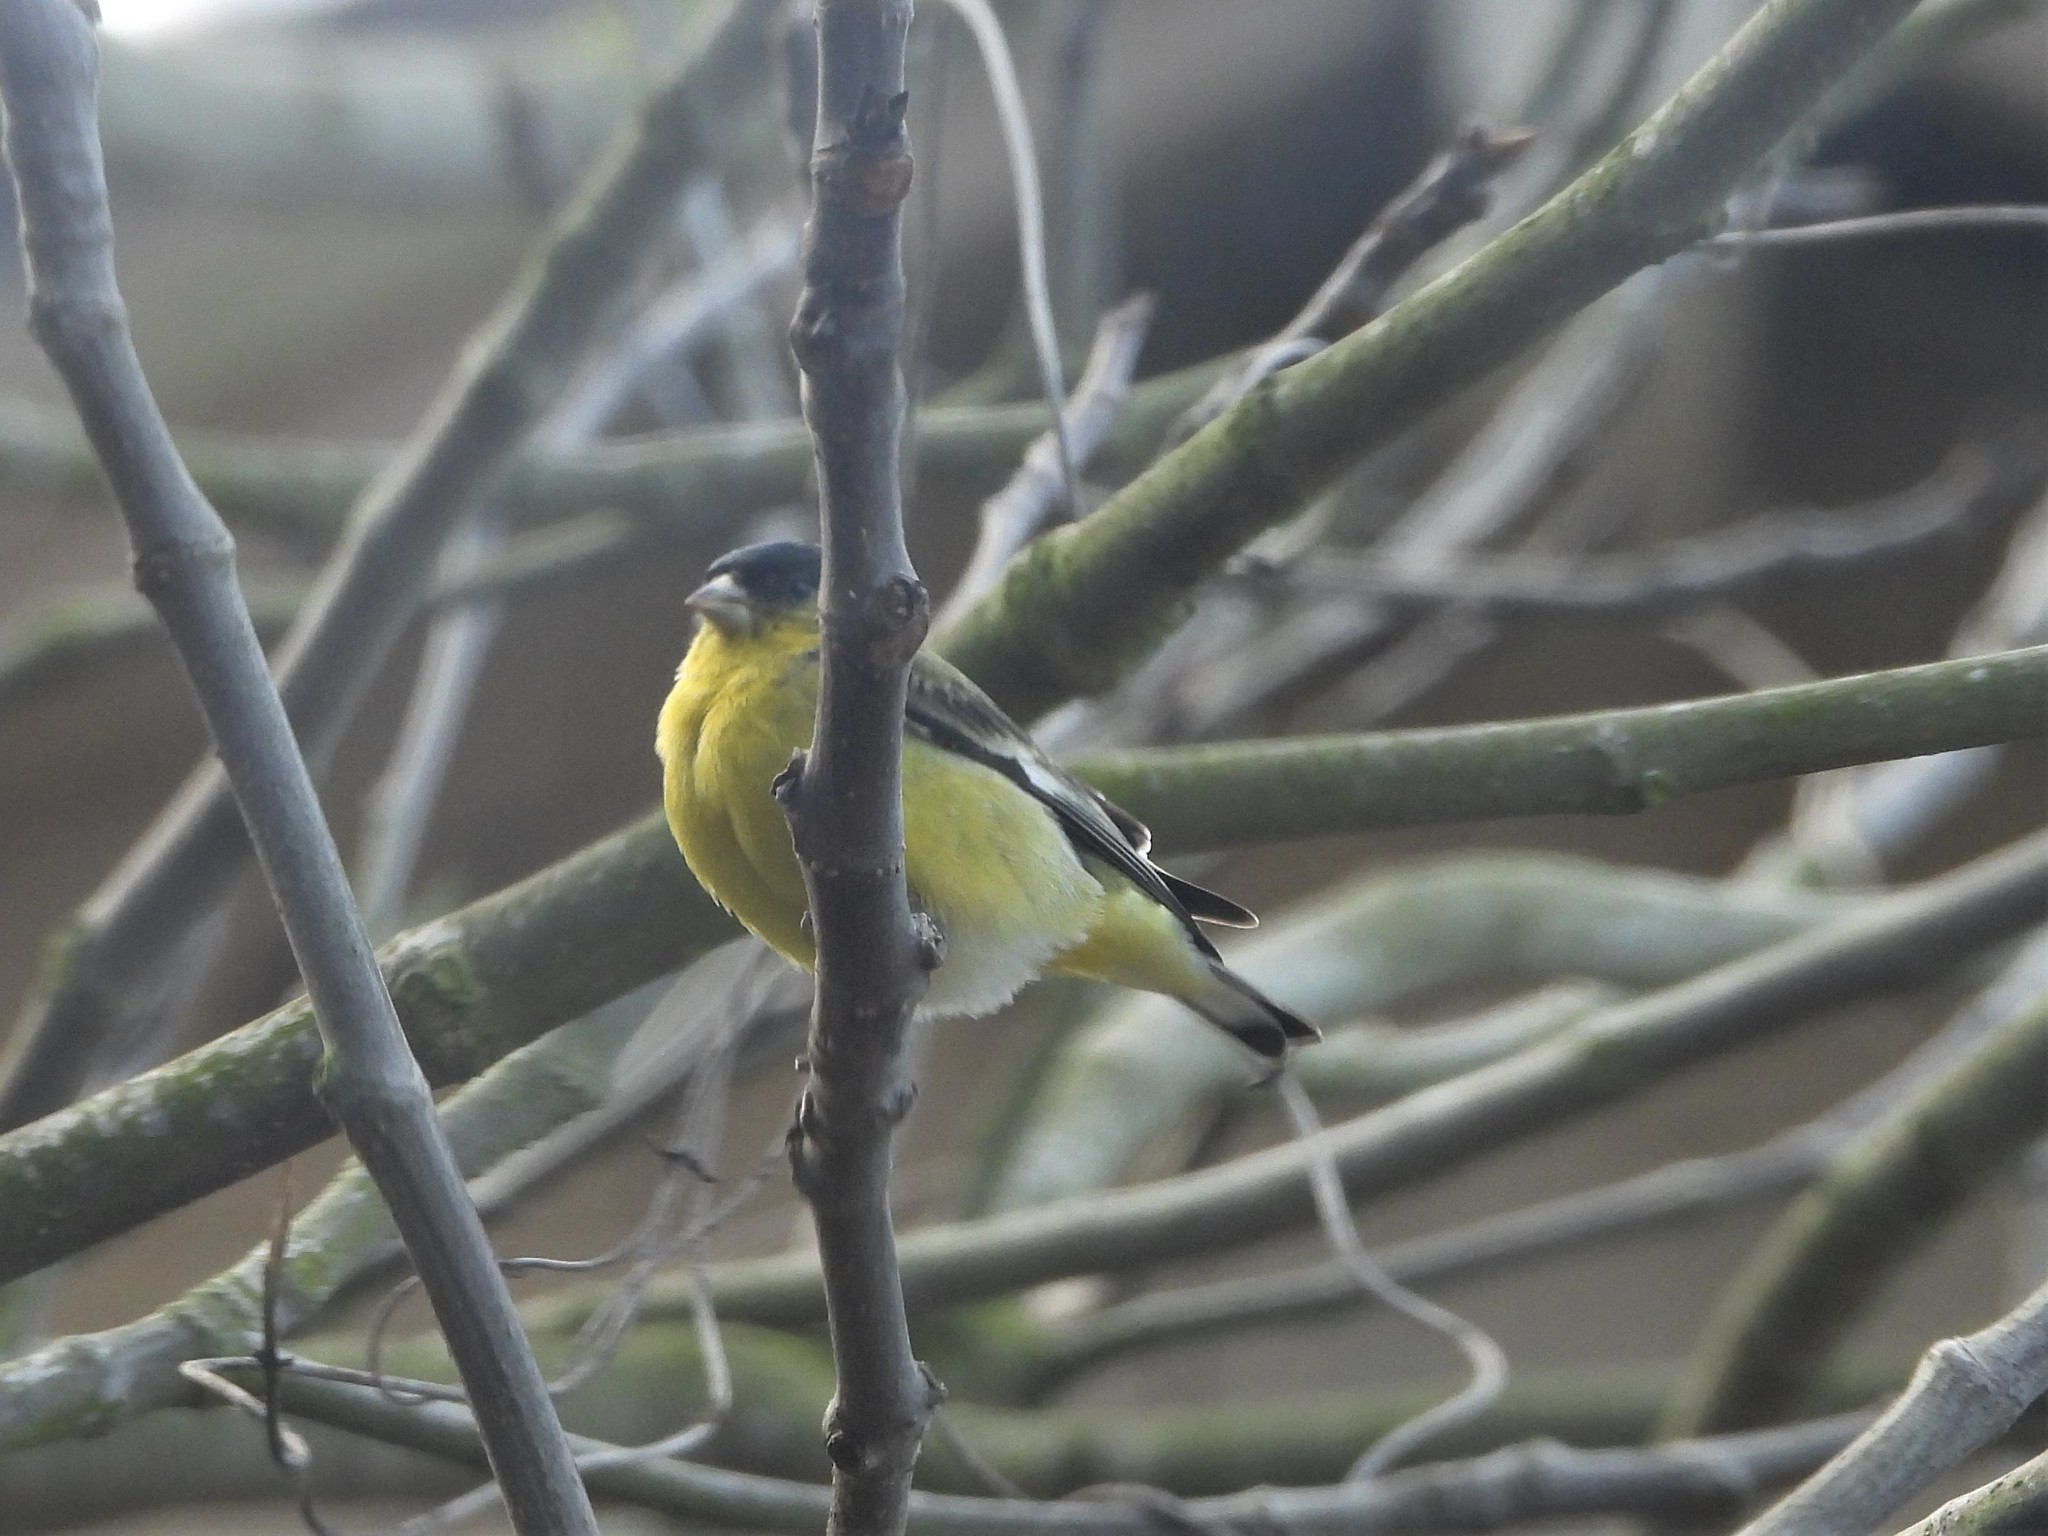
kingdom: Animalia
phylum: Chordata
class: Aves
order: Passeriformes
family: Fringillidae
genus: Spinus
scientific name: Spinus psaltria
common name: Lesser goldfinch
